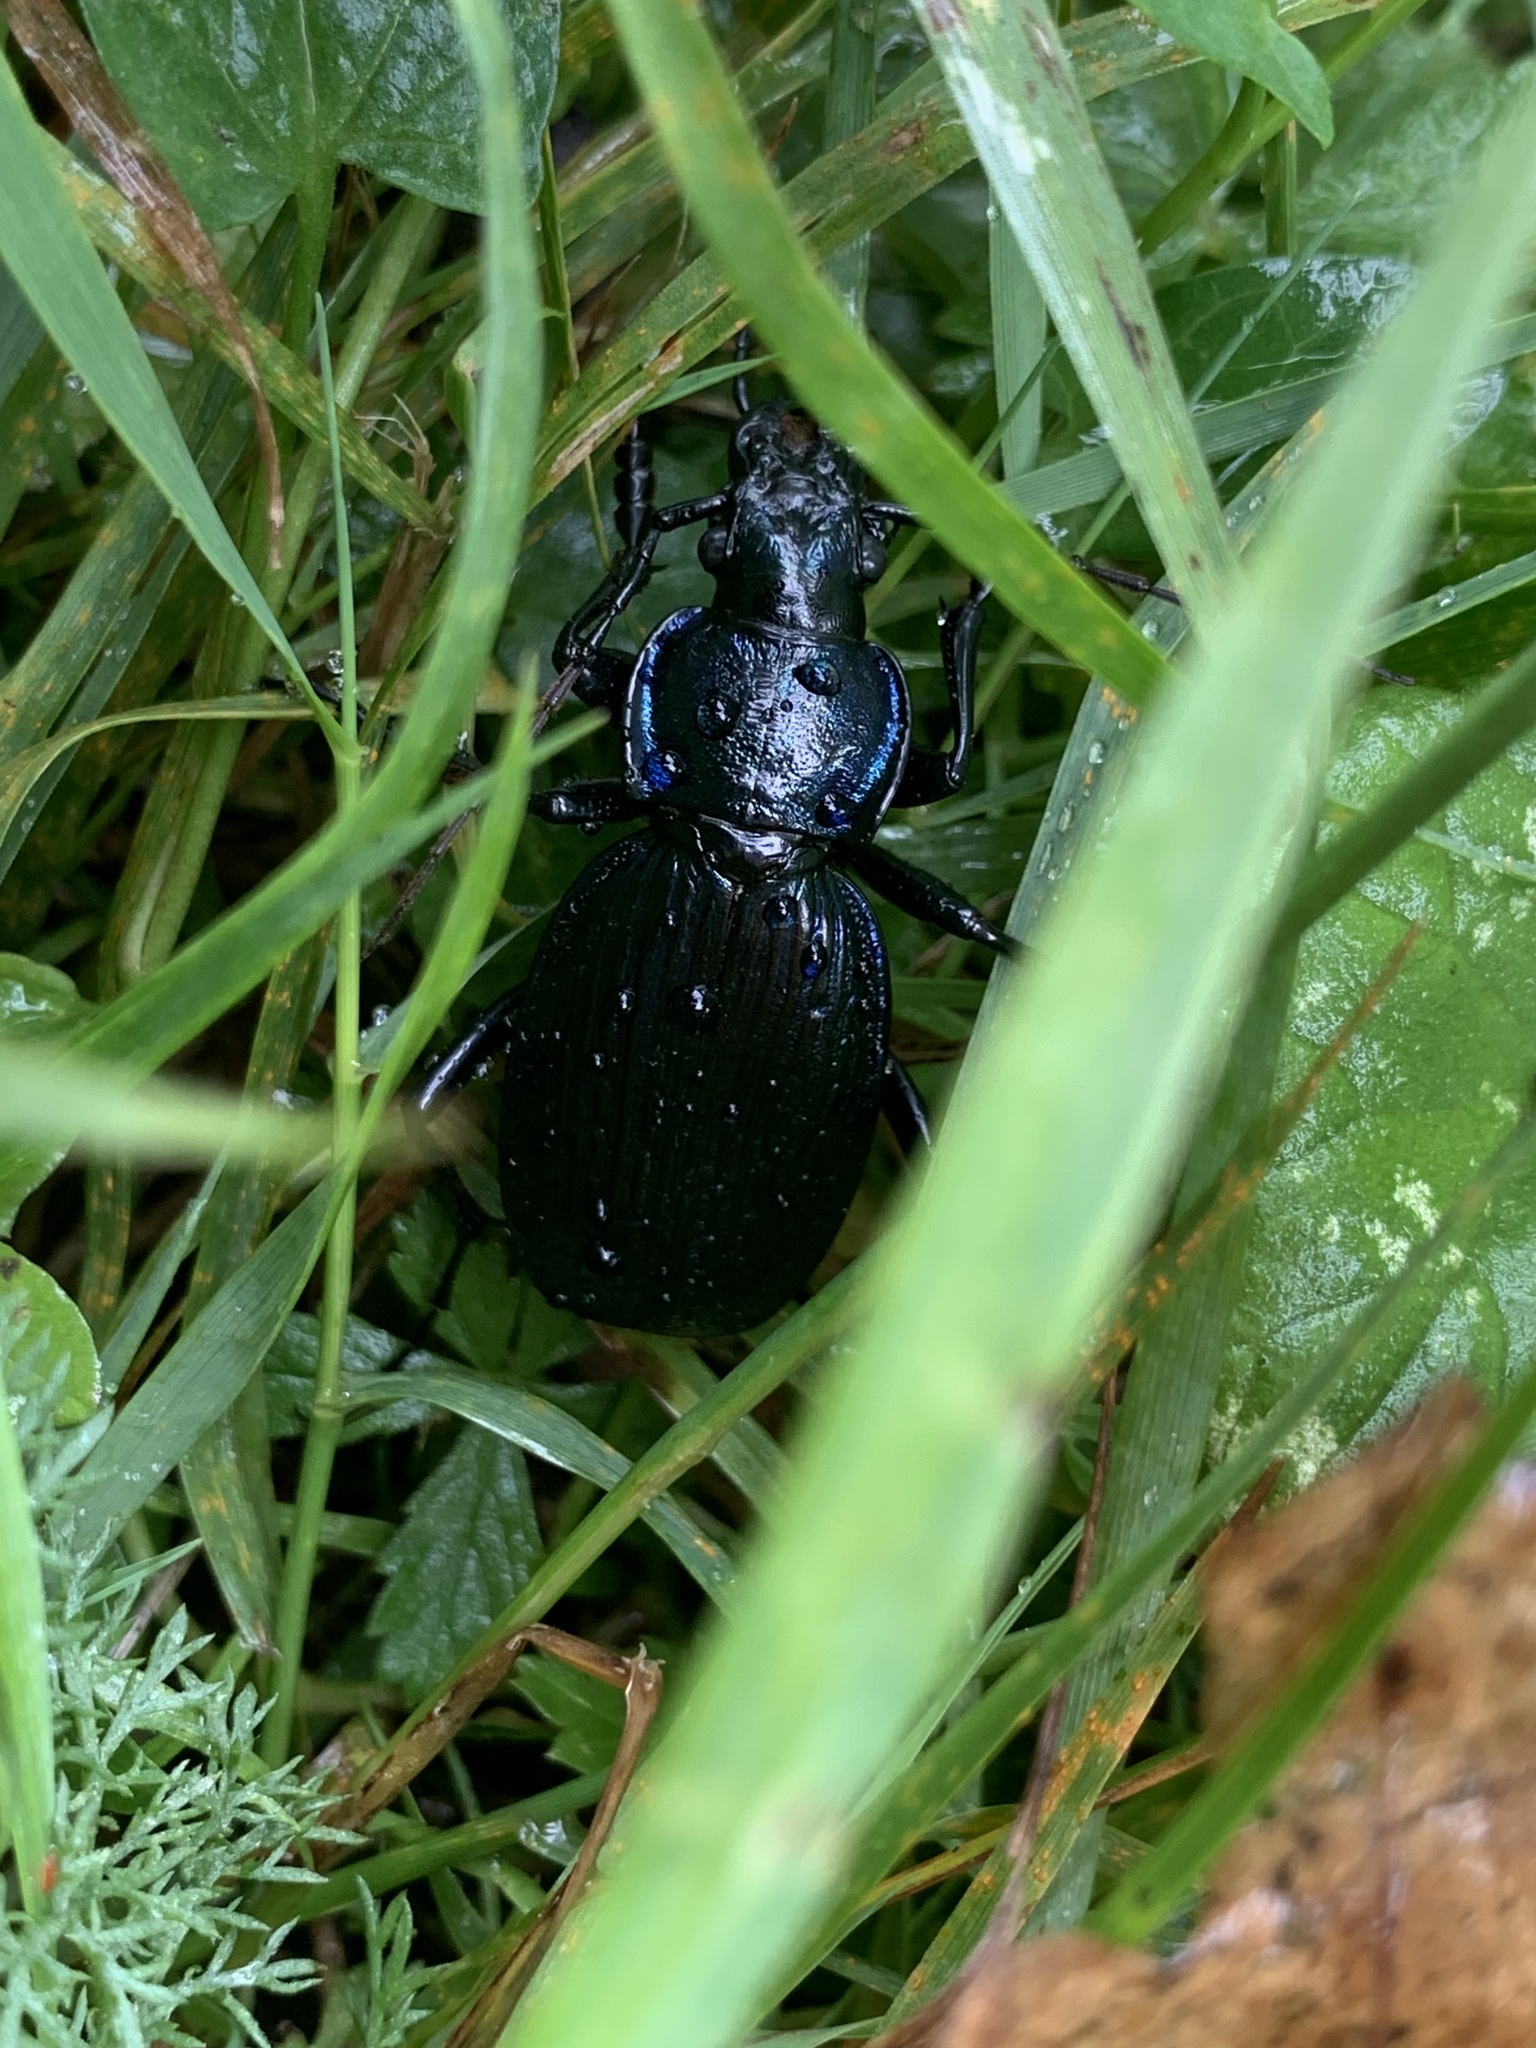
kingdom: Animalia
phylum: Arthropoda
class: Insecta
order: Coleoptera
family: Carabidae
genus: Carabus
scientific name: Carabus exaratus
